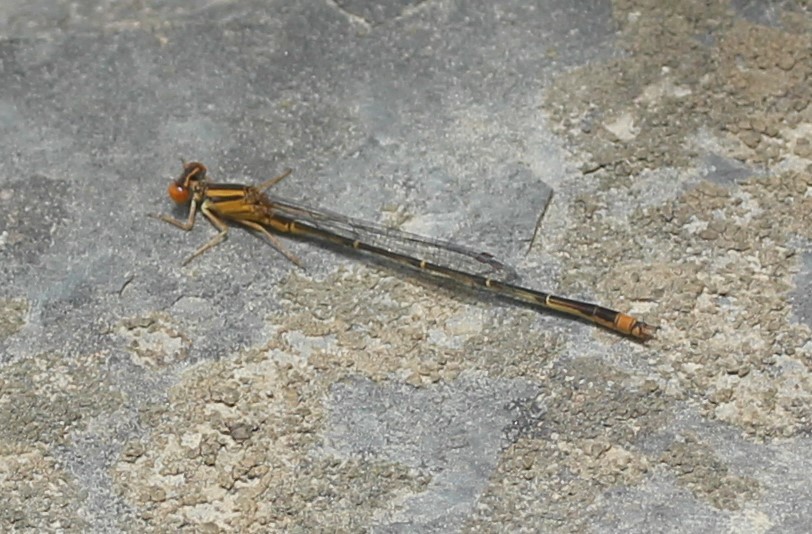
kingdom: Animalia
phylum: Arthropoda
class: Insecta
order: Odonata
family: Coenagrionidae
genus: Enallagma
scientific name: Enallagma signatum
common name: Orange bluet
